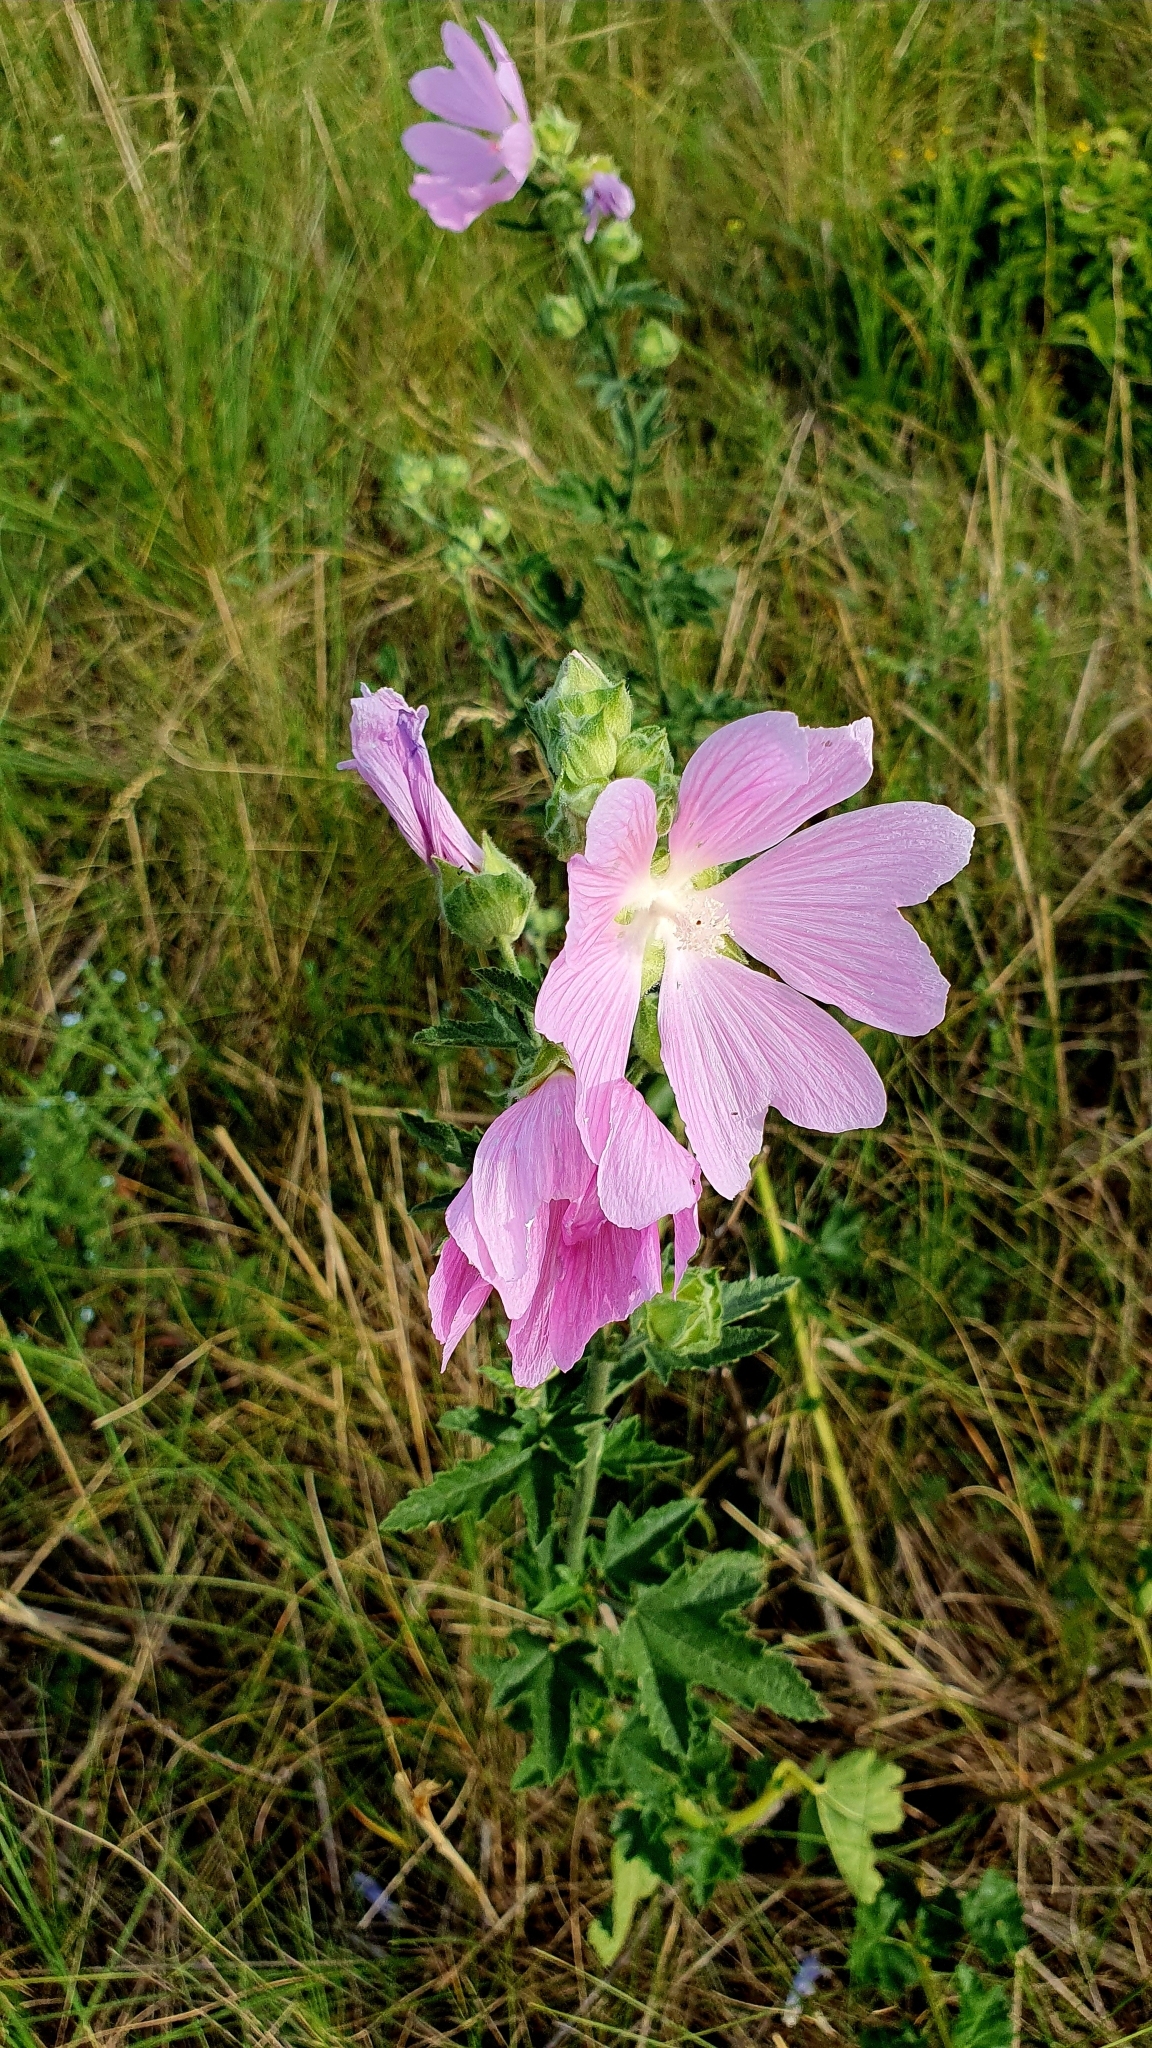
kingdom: Plantae
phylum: Tracheophyta
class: Magnoliopsida
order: Malvales
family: Malvaceae
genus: Malva
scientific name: Malva thuringiaca
